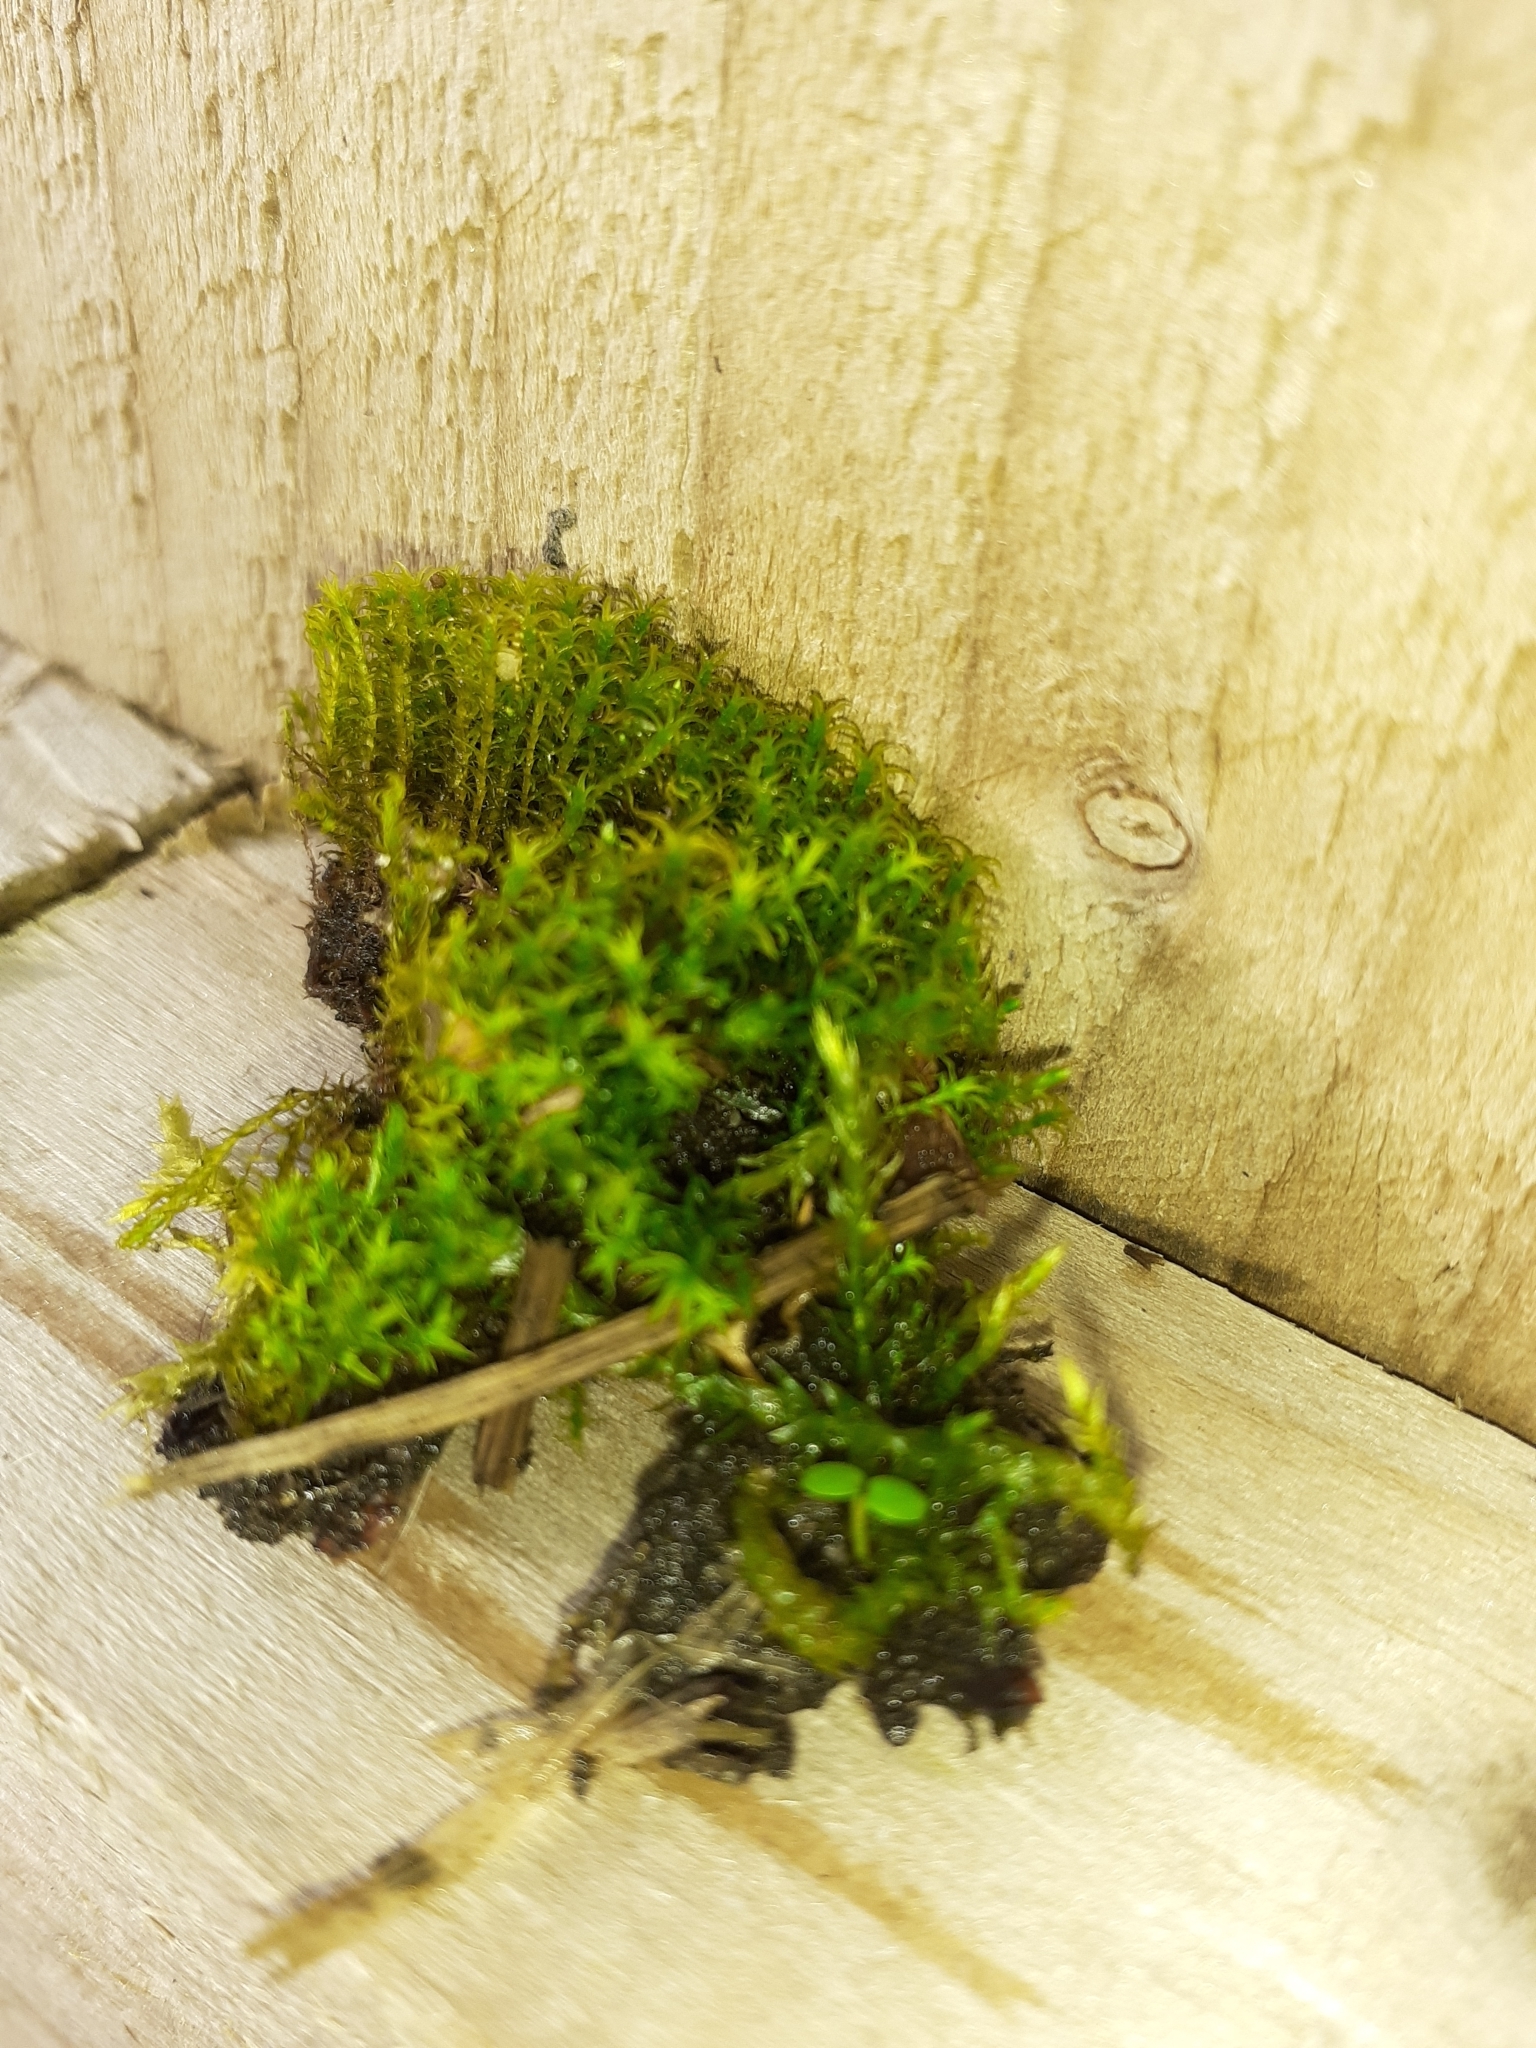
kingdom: Plantae
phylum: Bryophyta
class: Bryopsida
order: Pottiales
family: Pottiaceae
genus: Vinealobryum
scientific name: Vinealobryum insulanum
